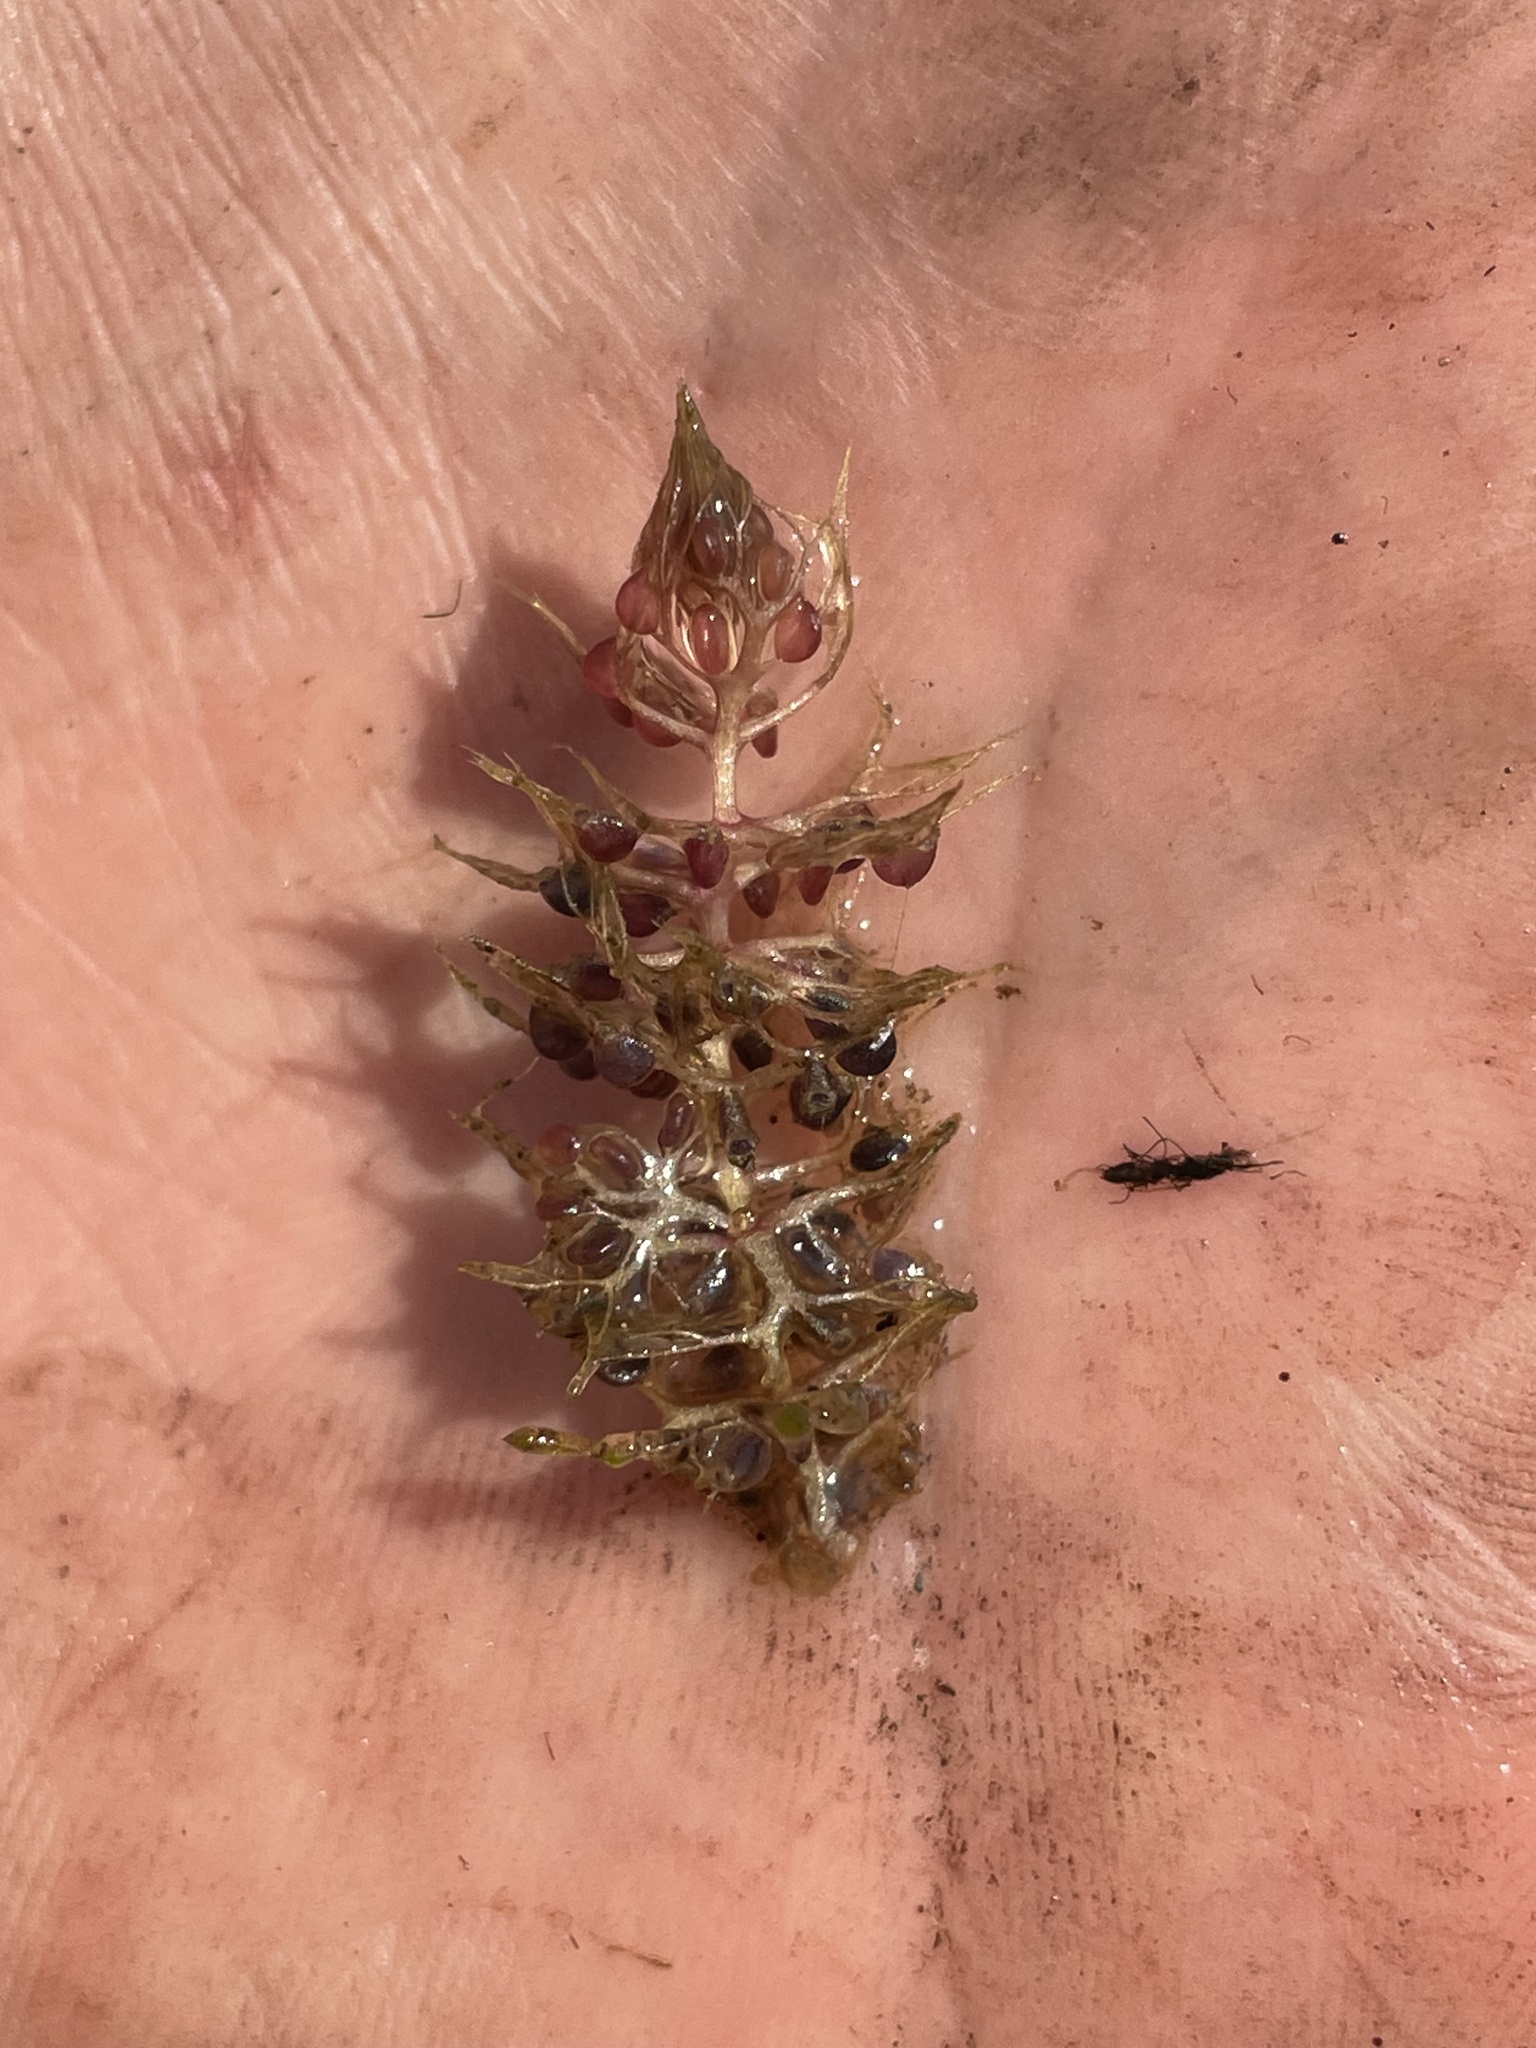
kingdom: Plantae
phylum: Tracheophyta
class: Magnoliopsida
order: Lamiales
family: Lentibulariaceae
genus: Utricularia
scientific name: Utricularia raynalii
